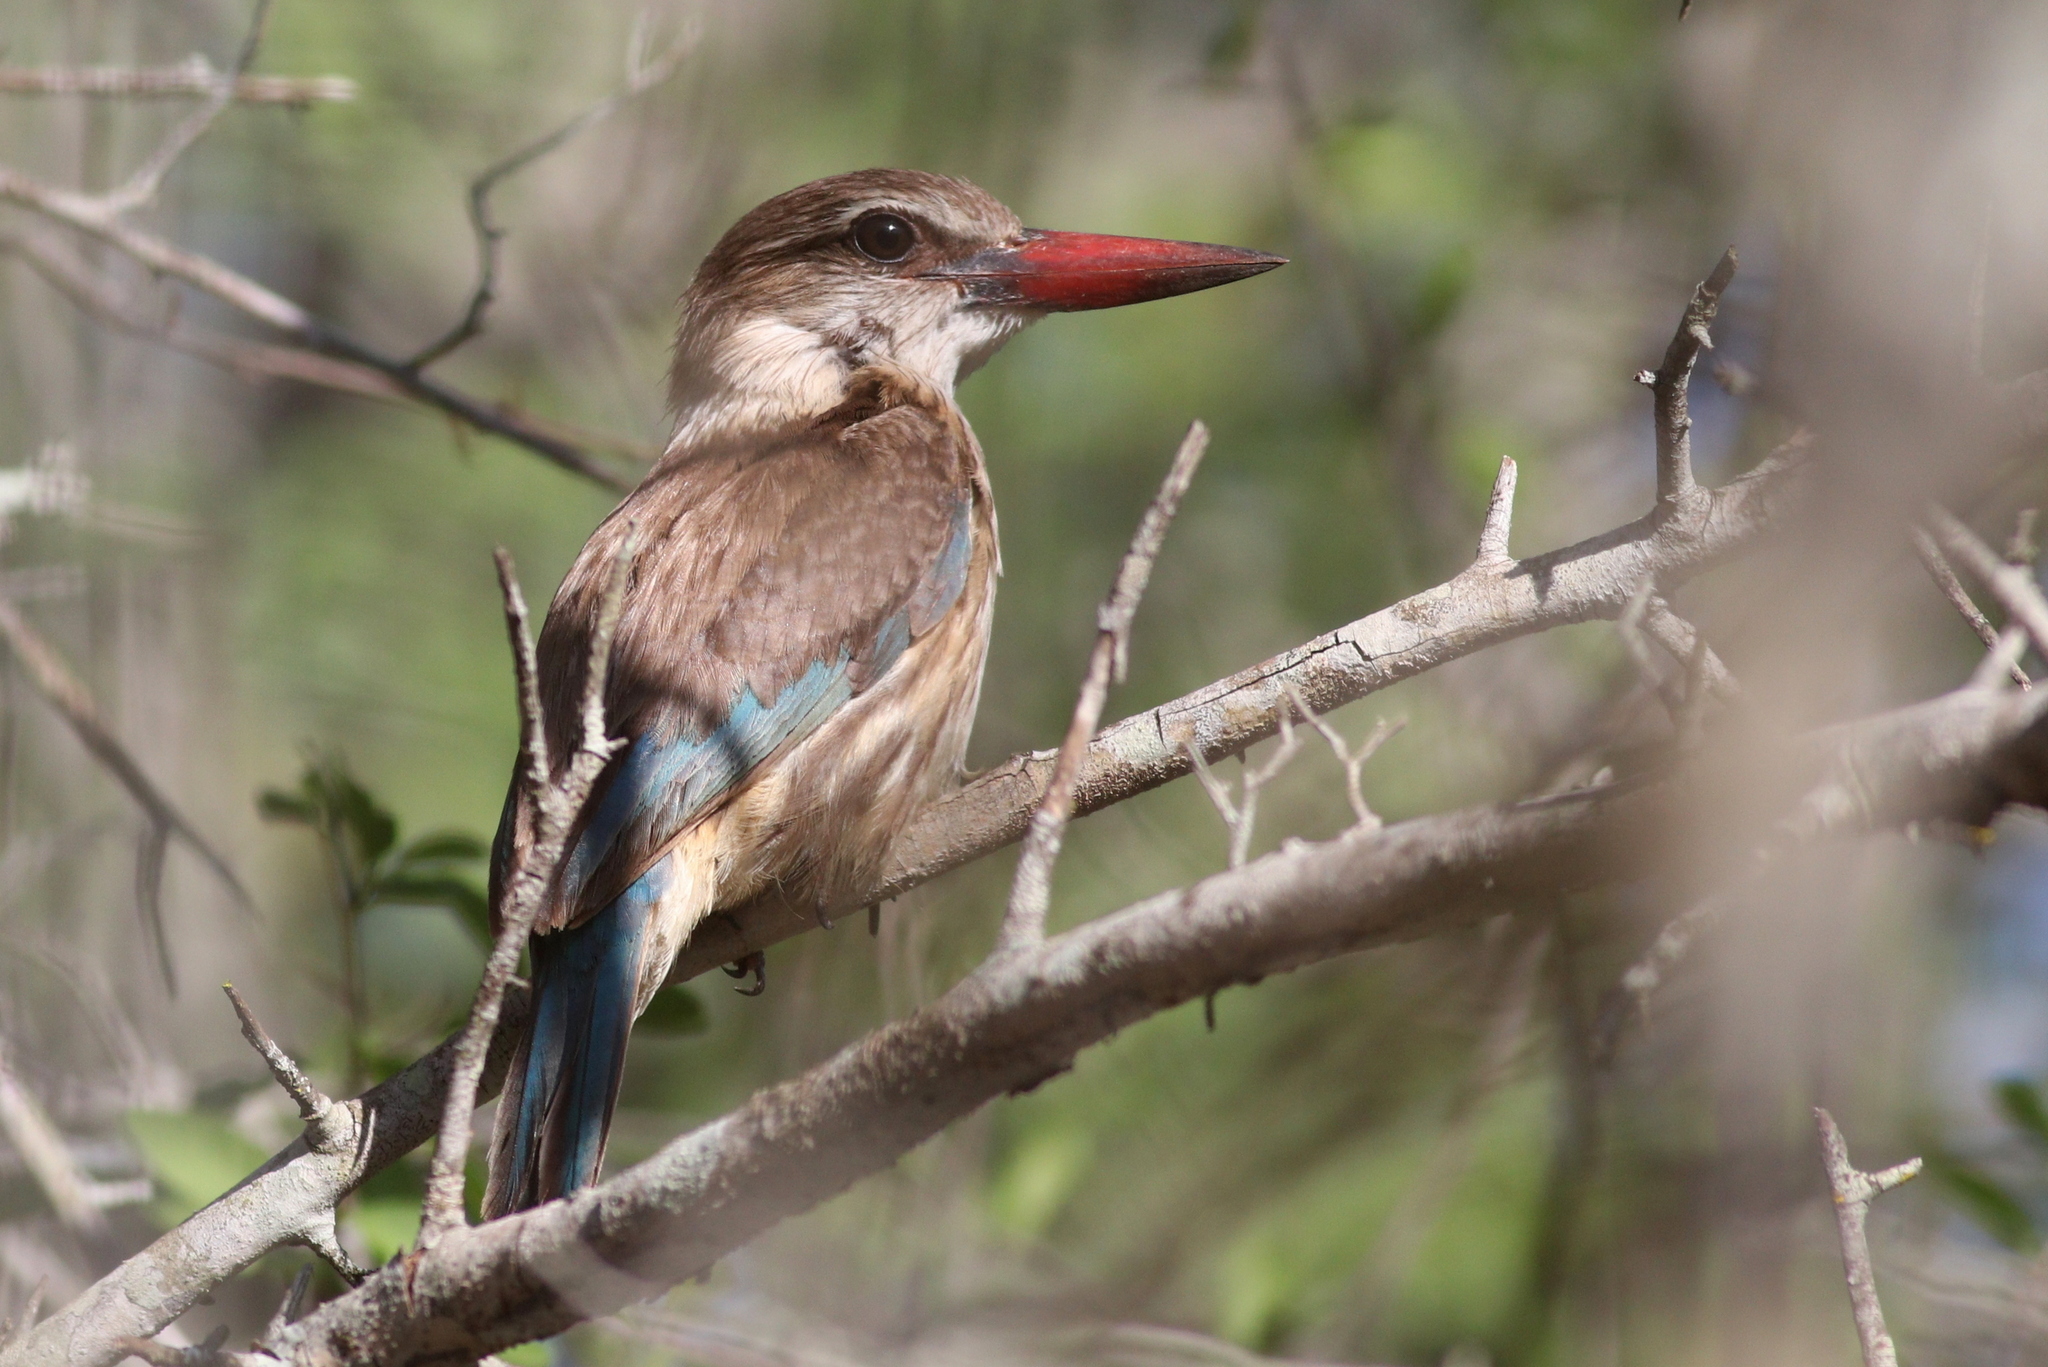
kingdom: Animalia
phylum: Chordata
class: Aves
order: Coraciiformes
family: Alcedinidae
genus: Halcyon
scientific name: Halcyon albiventris
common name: Brown-hooded kingfisher
